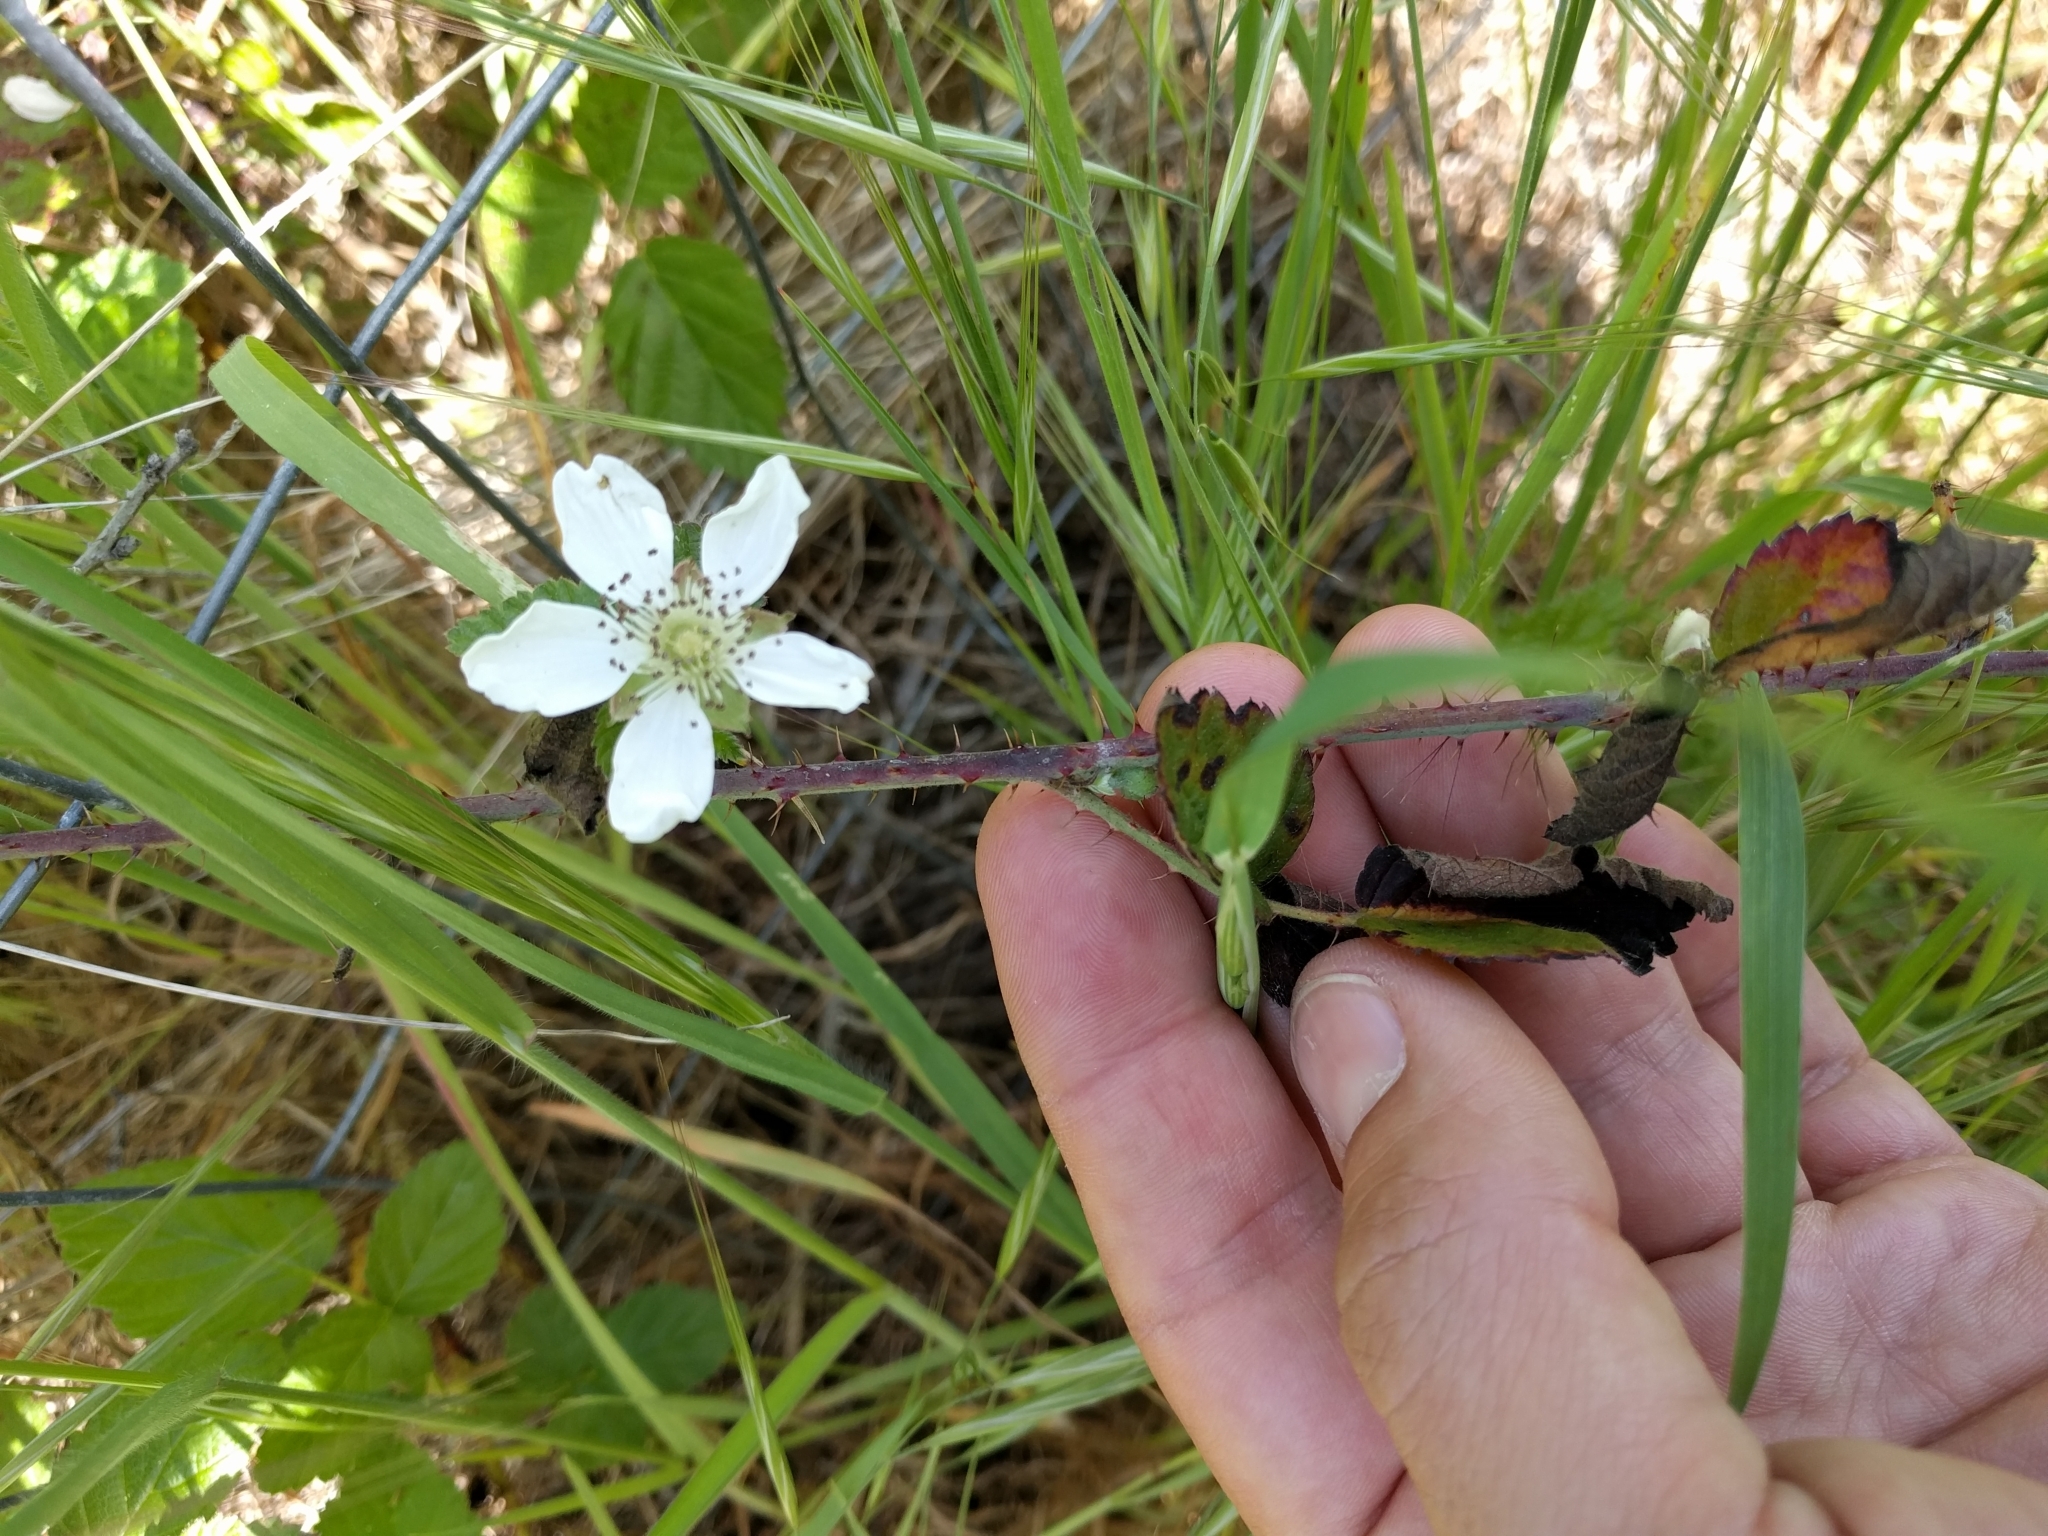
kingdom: Plantae
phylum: Tracheophyta
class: Magnoliopsida
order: Rosales
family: Rosaceae
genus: Rubus
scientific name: Rubus ursinus
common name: Pacific blackberry
